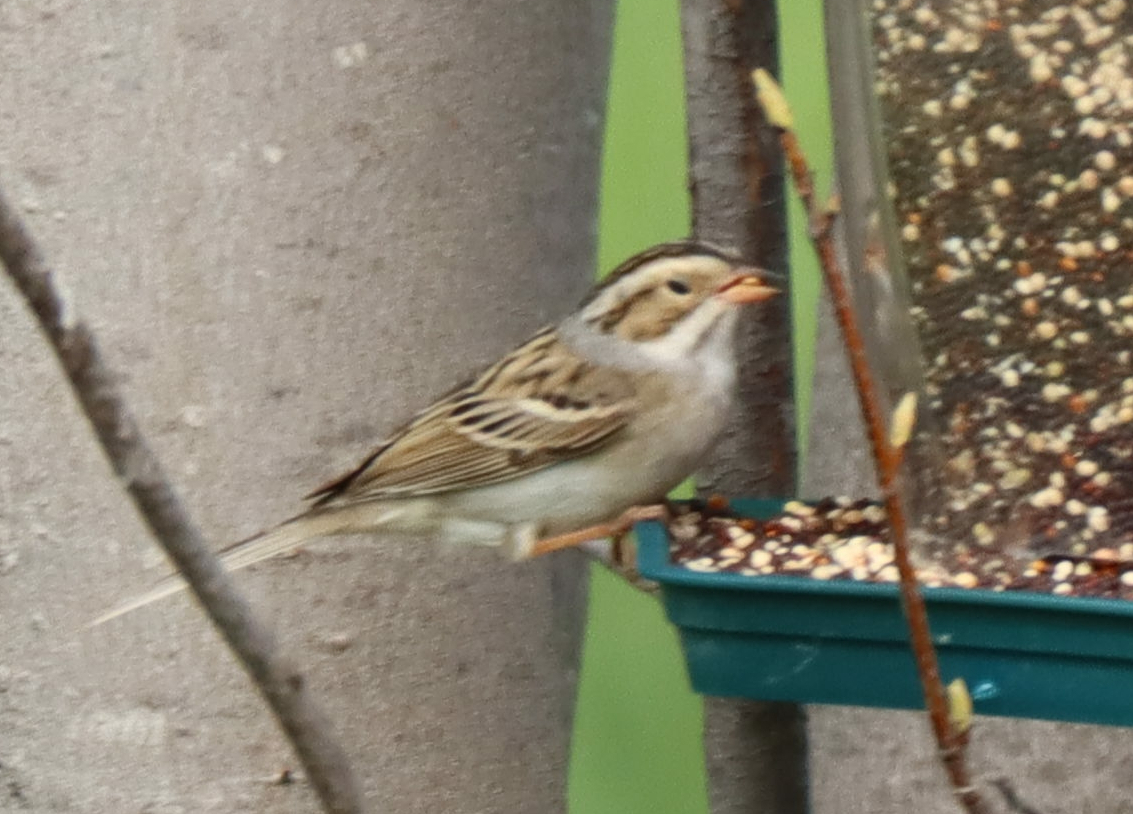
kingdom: Animalia
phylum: Chordata
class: Aves
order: Passeriformes
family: Passerellidae
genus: Spizella
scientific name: Spizella pallida
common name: Clay-colored sparrow
